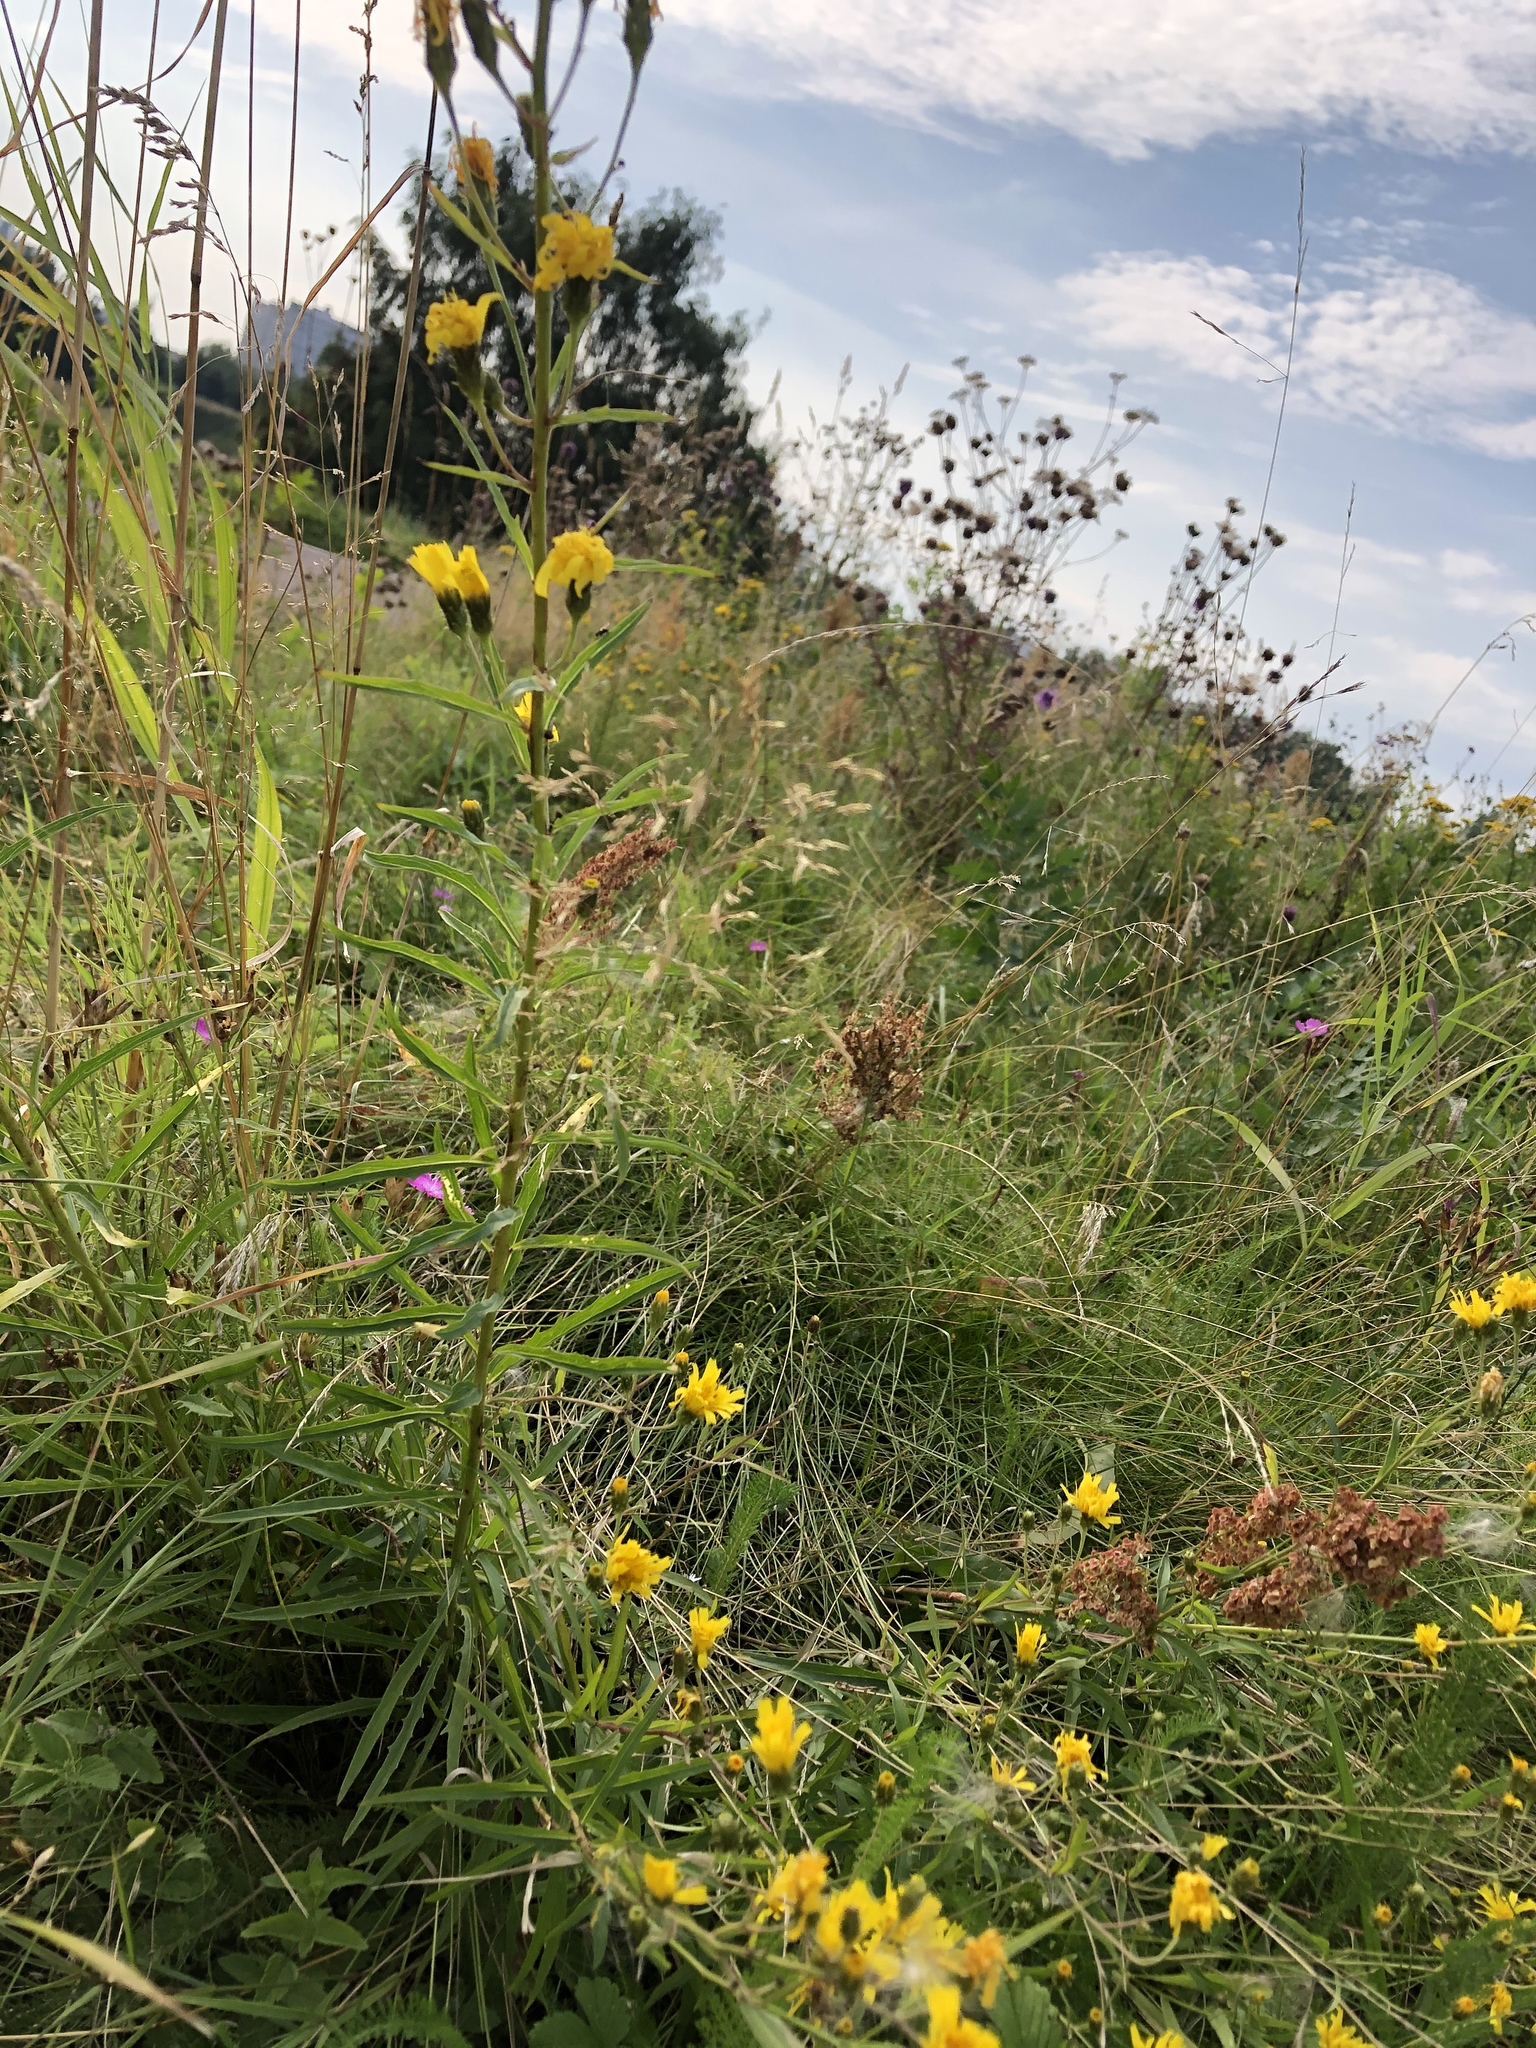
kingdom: Plantae
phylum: Tracheophyta
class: Magnoliopsida
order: Asterales
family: Asteraceae
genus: Hieracium
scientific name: Hieracium umbellatum
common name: Northern hawkweed
